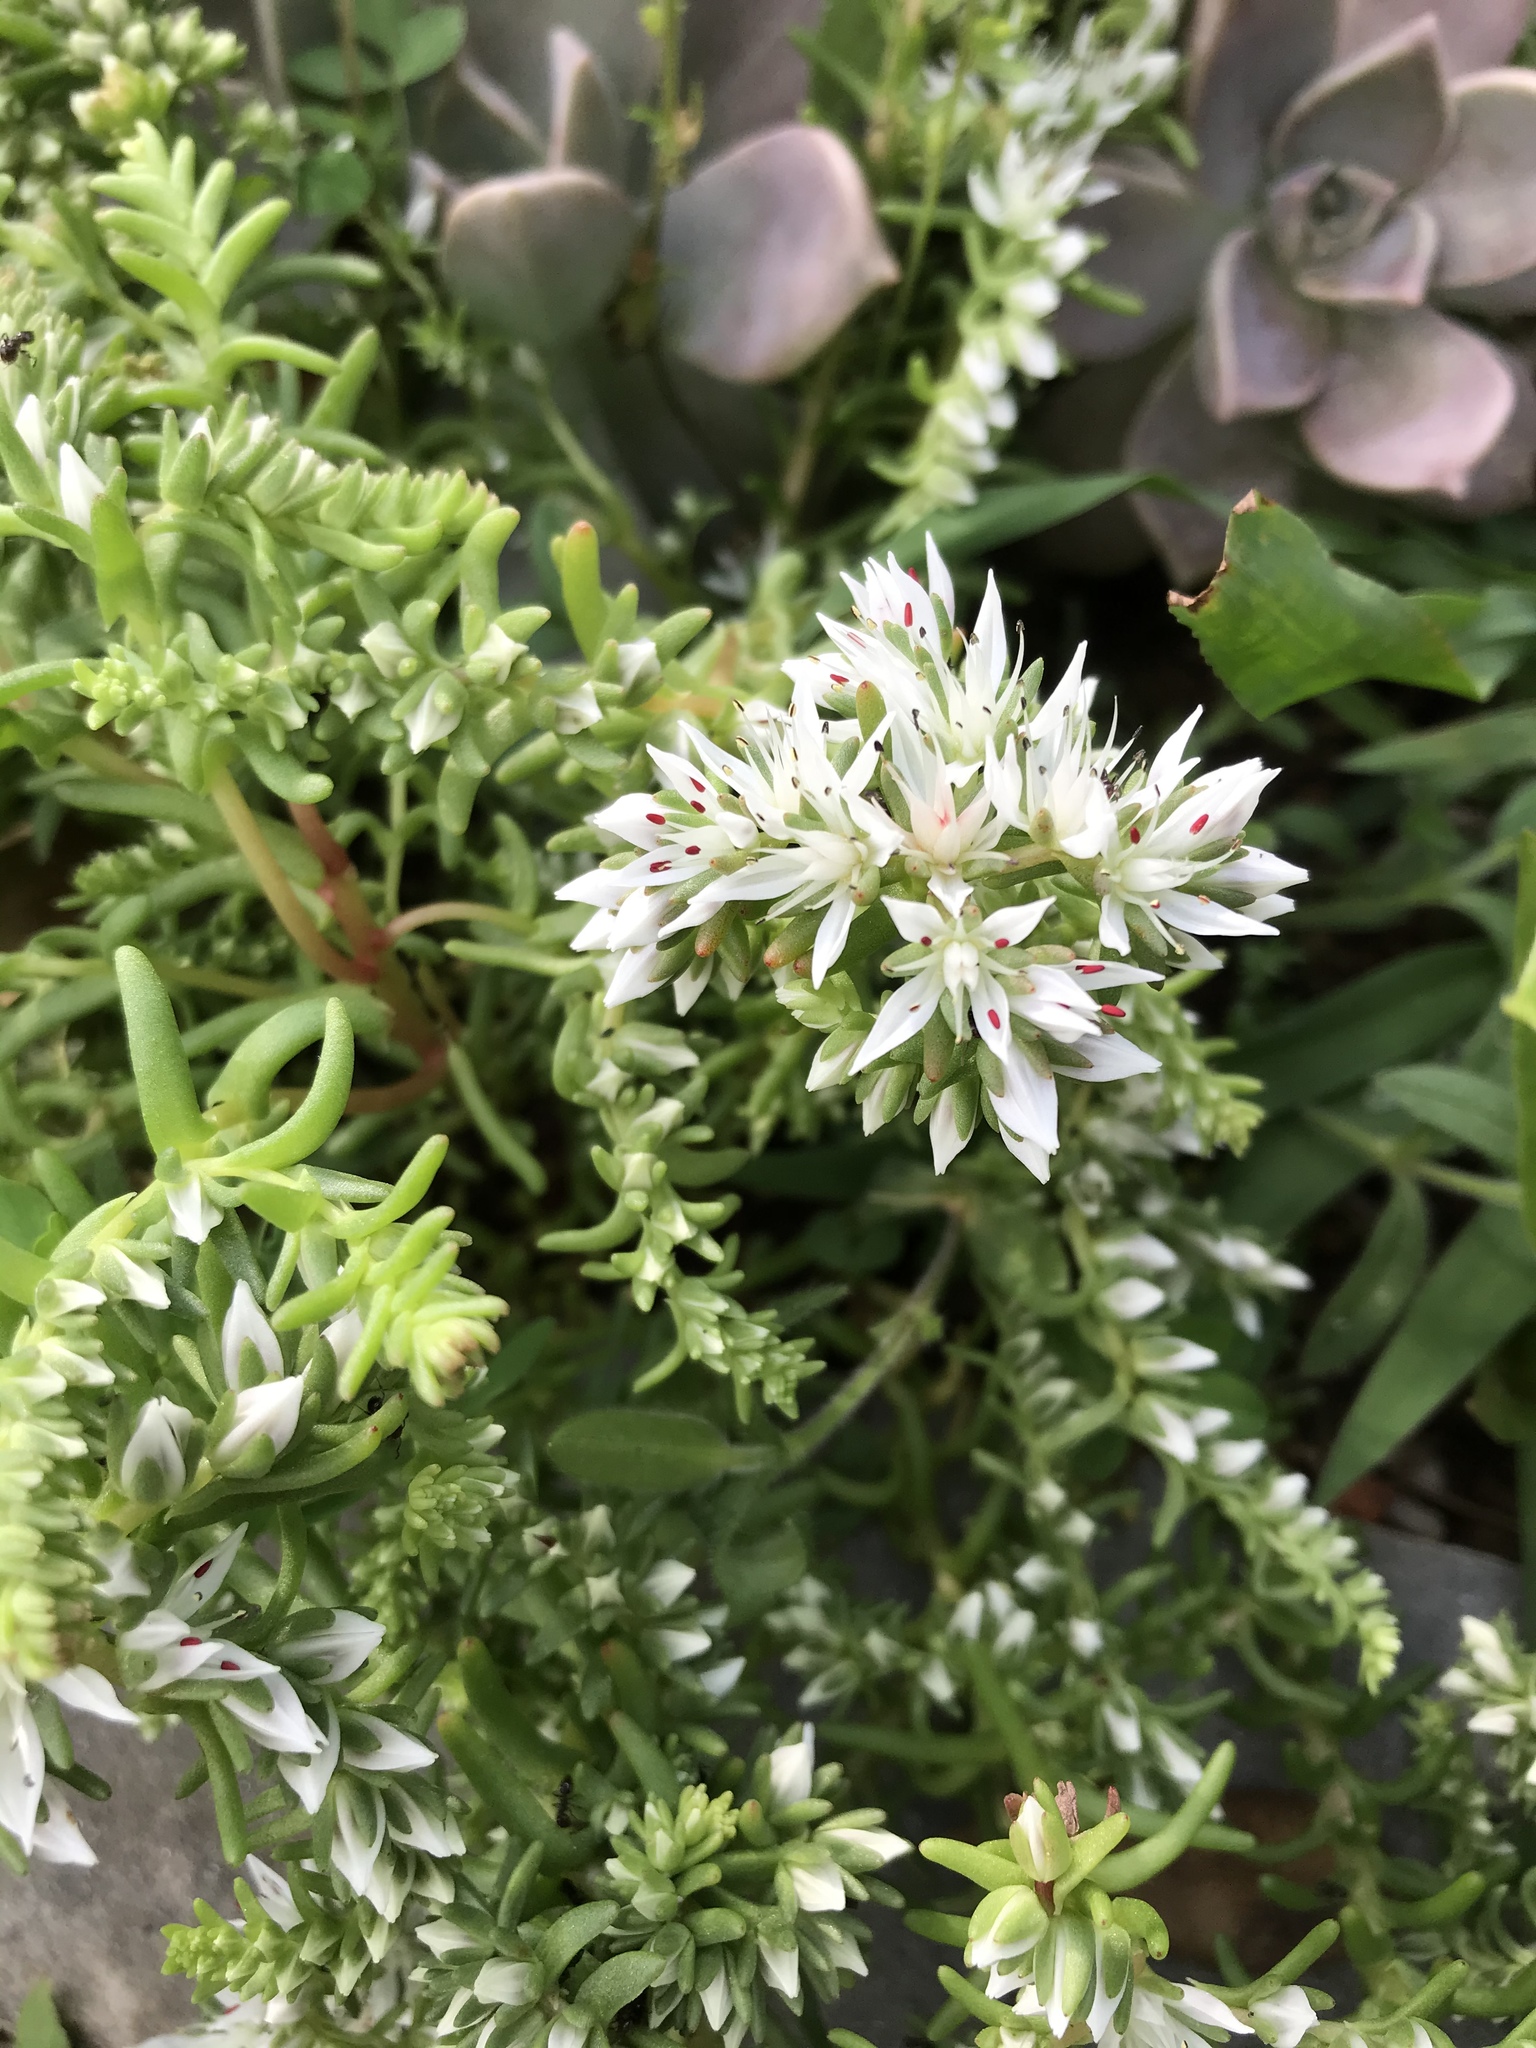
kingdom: Plantae
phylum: Tracheophyta
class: Magnoliopsida
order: Saxifragales
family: Crassulaceae
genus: Sedum
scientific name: Sedum ternatum
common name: Wild stonecrop
